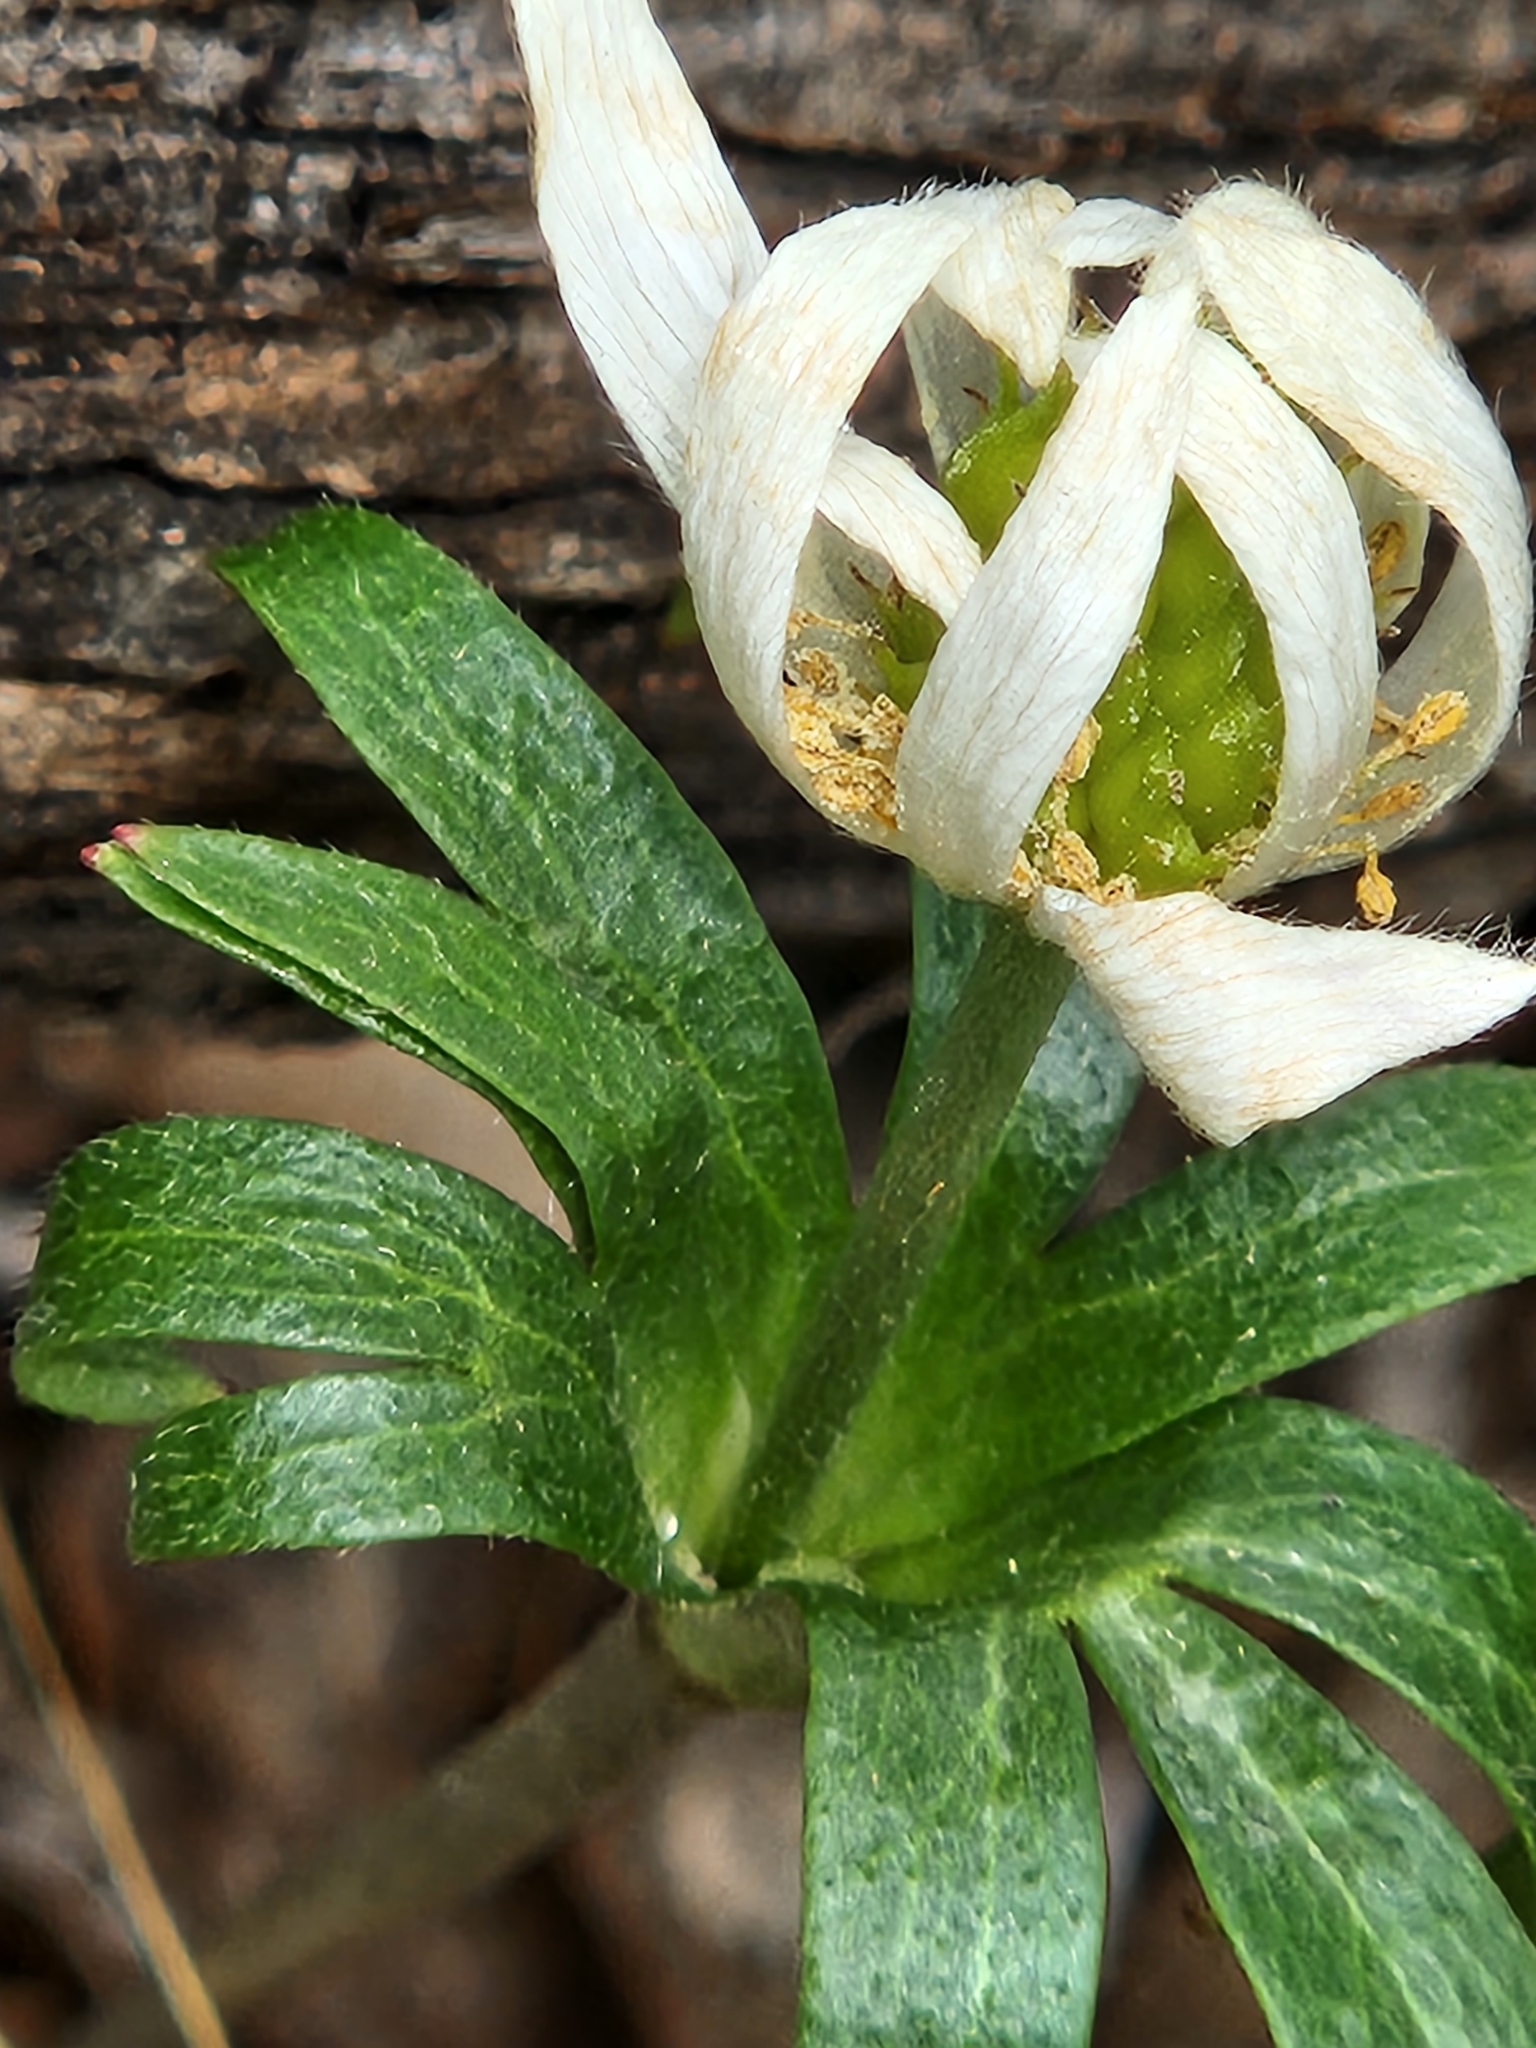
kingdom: Plantae
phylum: Tracheophyta
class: Magnoliopsida
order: Ranunculales
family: Ranunculaceae
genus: Anemone
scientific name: Anemone edwardsiana
